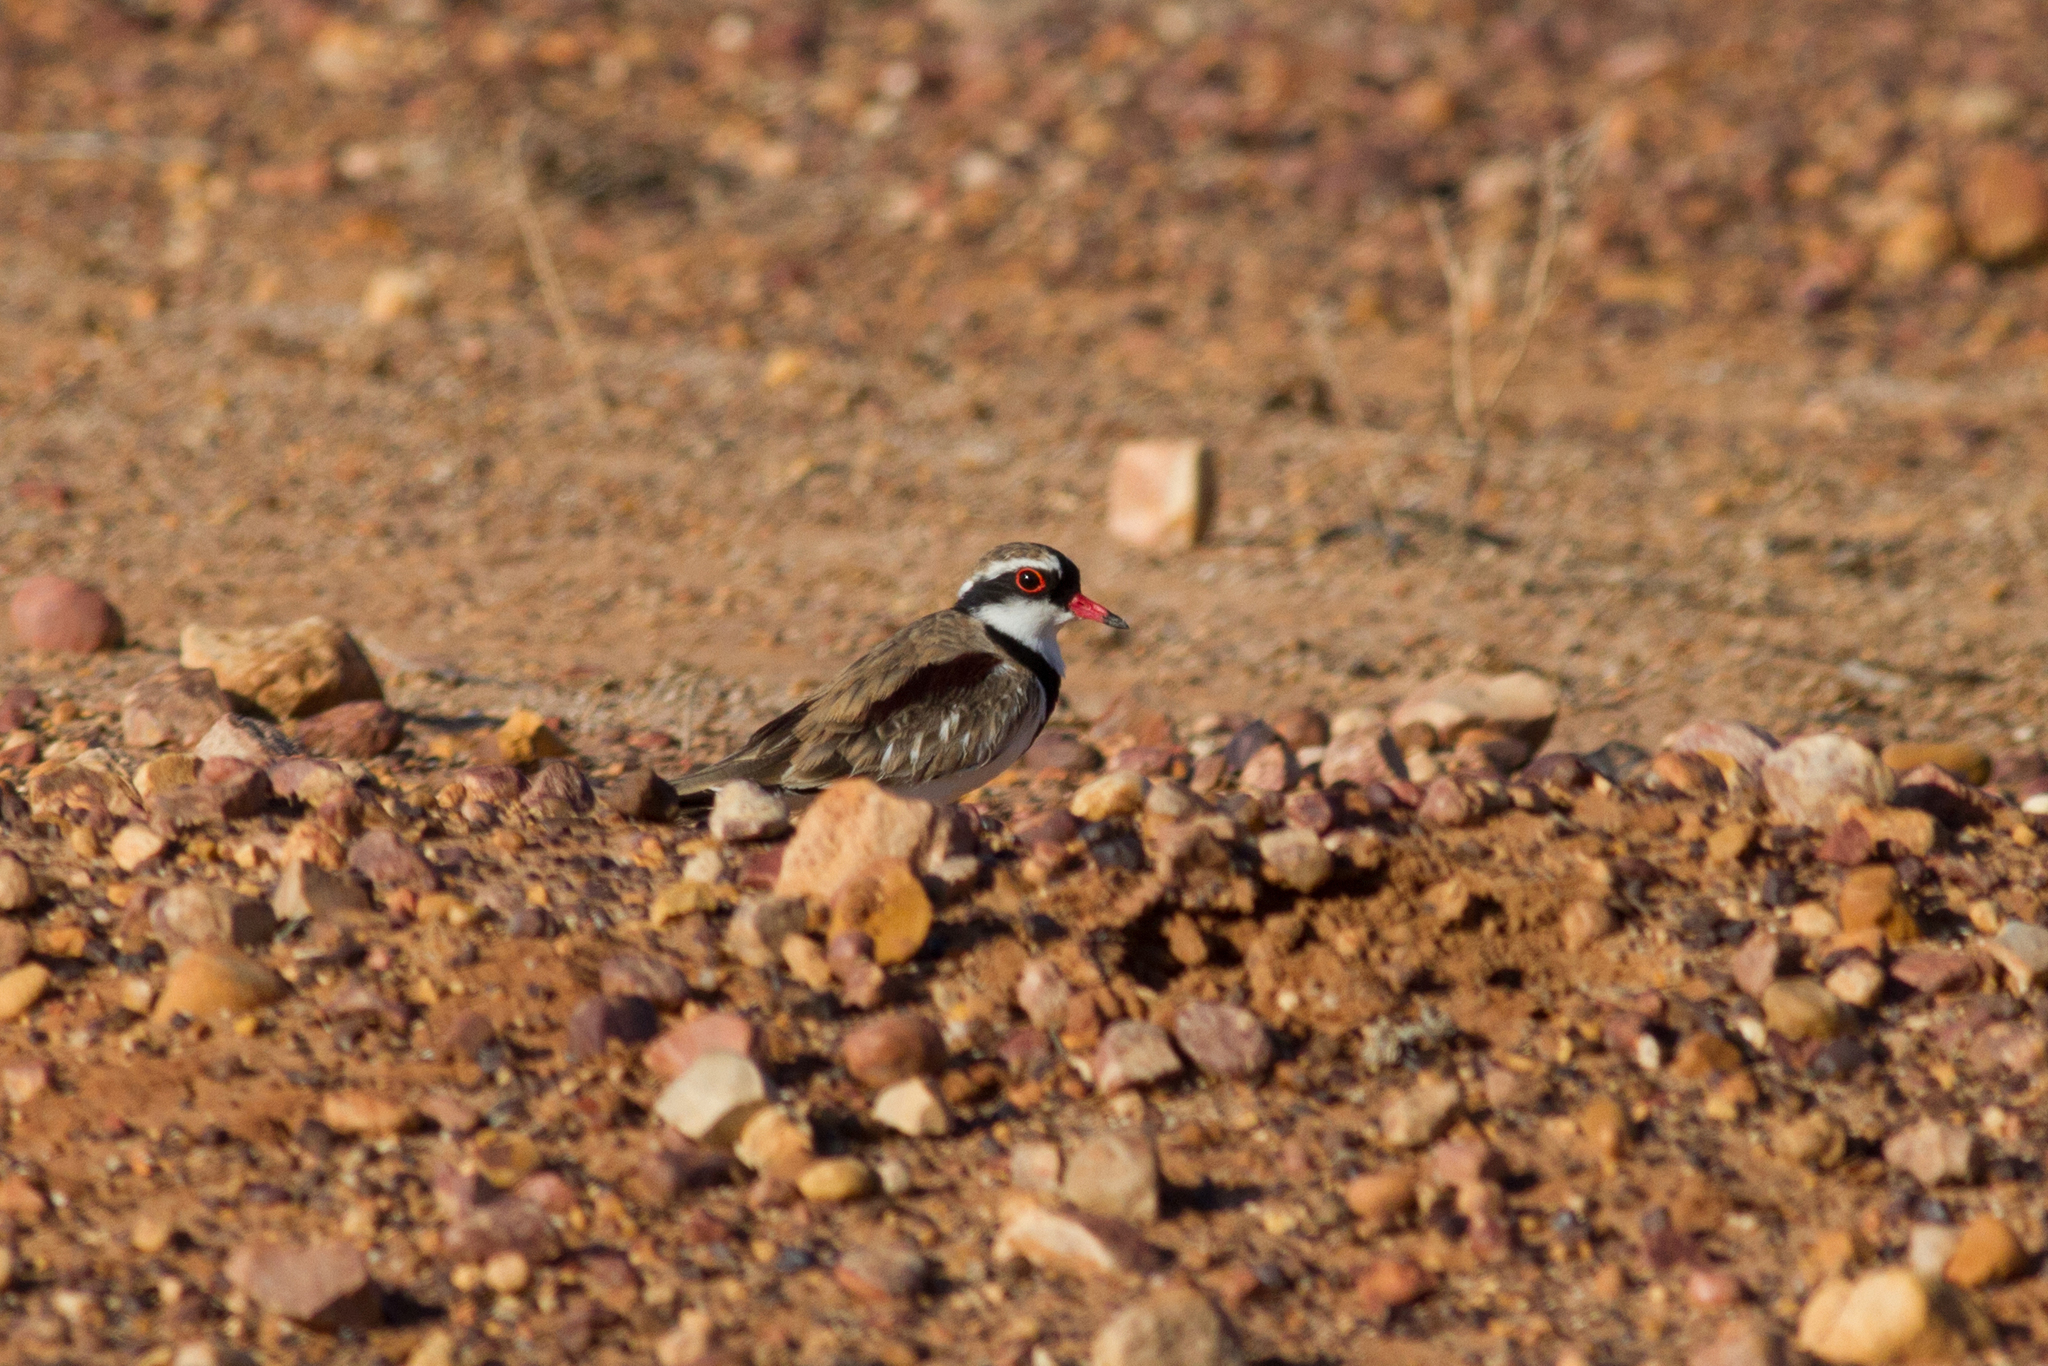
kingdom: Animalia
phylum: Chordata
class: Aves
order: Charadriiformes
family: Charadriidae
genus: Elseyornis
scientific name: Elseyornis melanops
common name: Black-fronted dotterel
